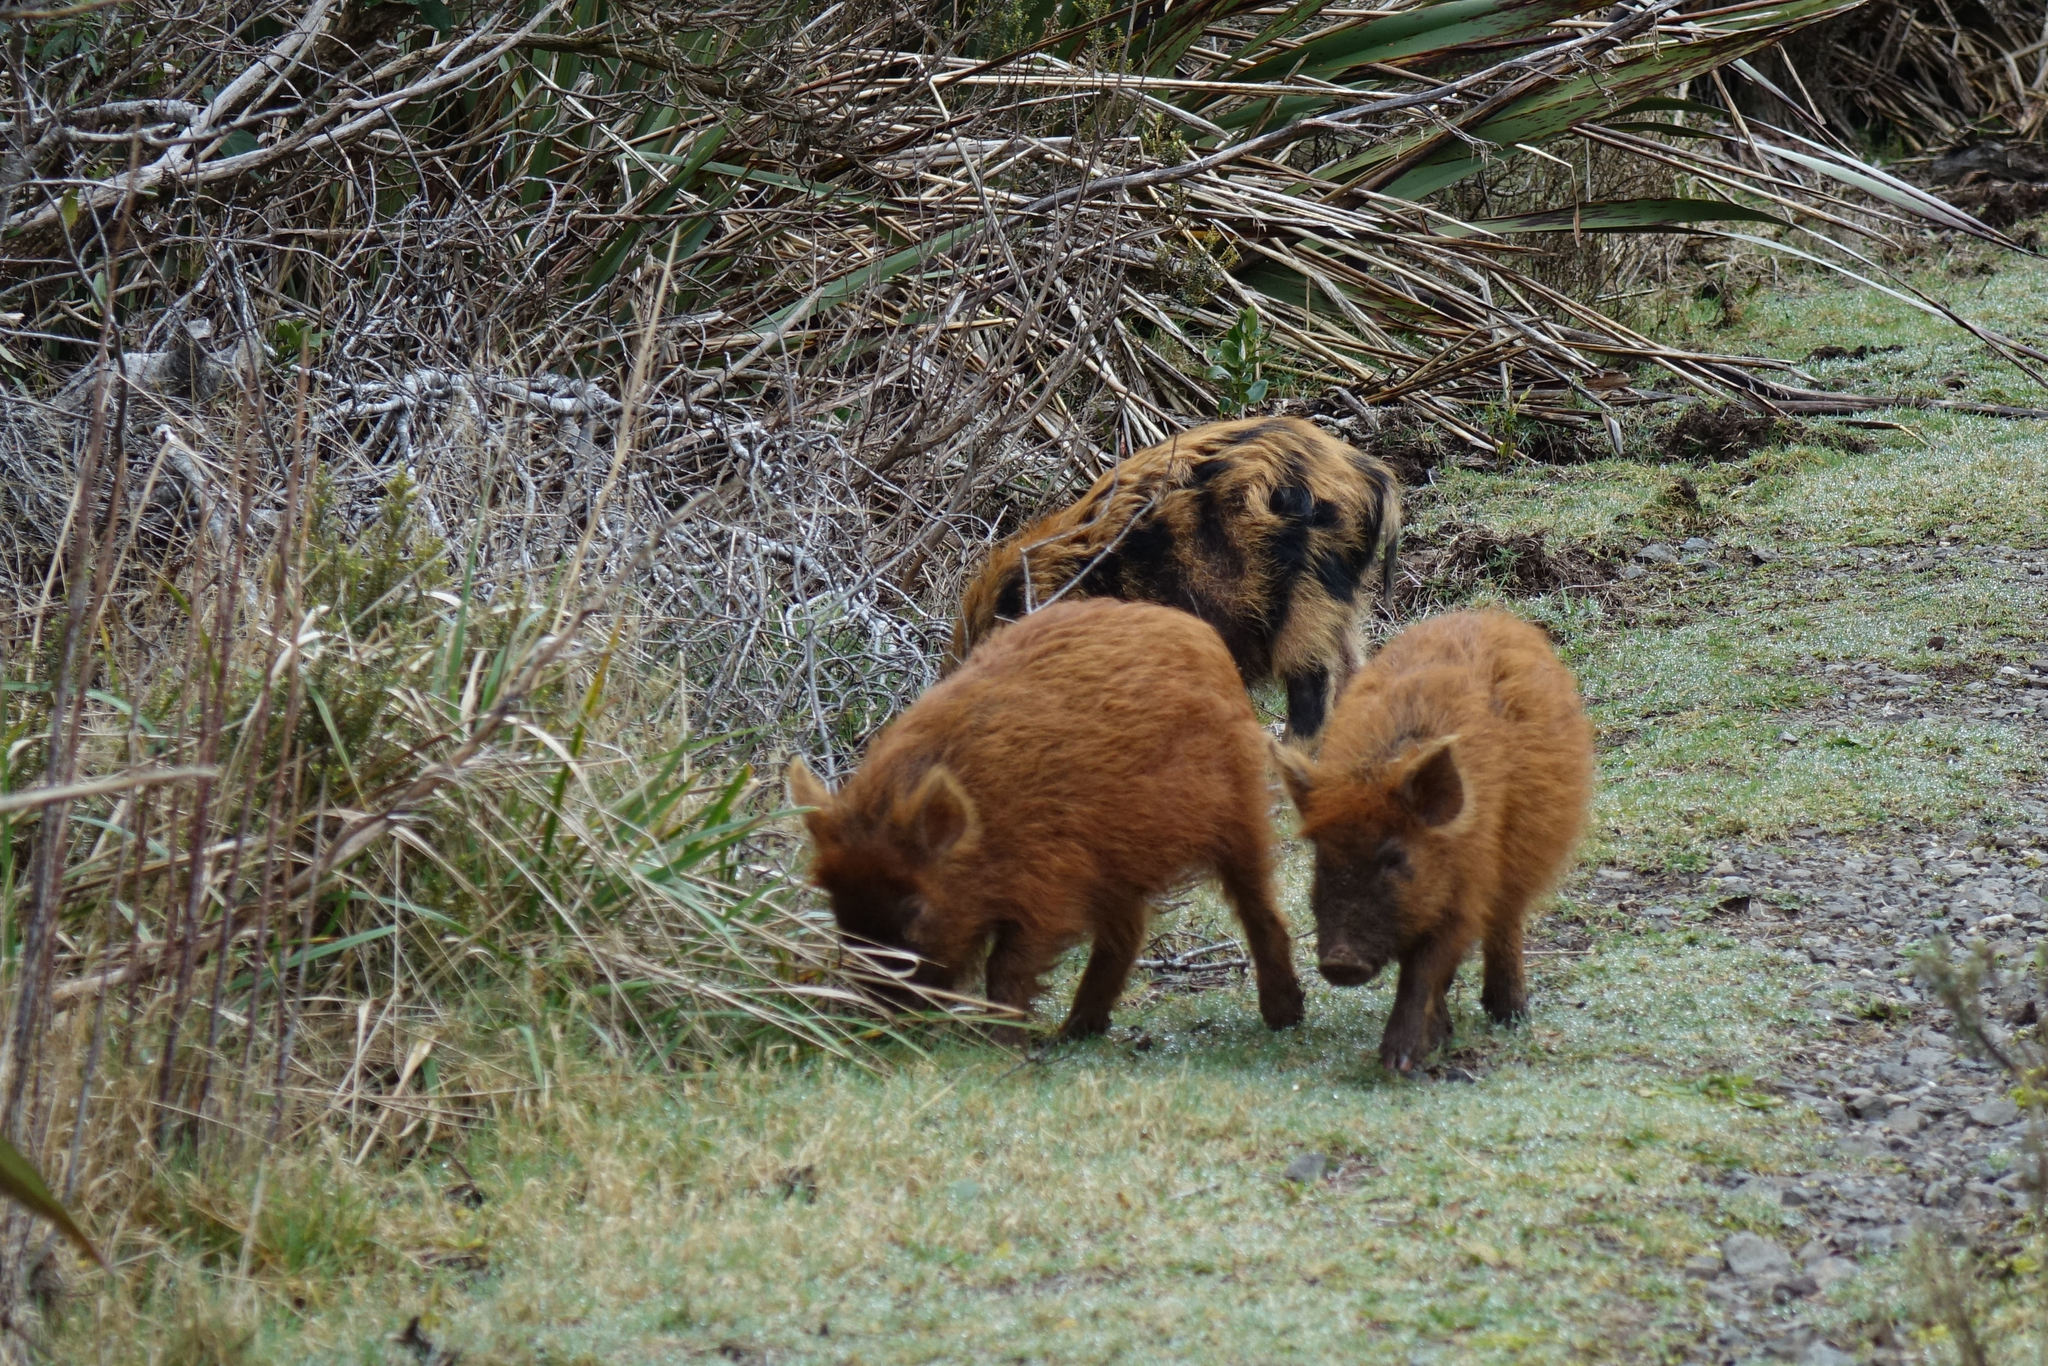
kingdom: Animalia
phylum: Chordata
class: Mammalia
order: Artiodactyla
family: Suidae
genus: Sus
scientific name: Sus scrofa
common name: Wild boar
